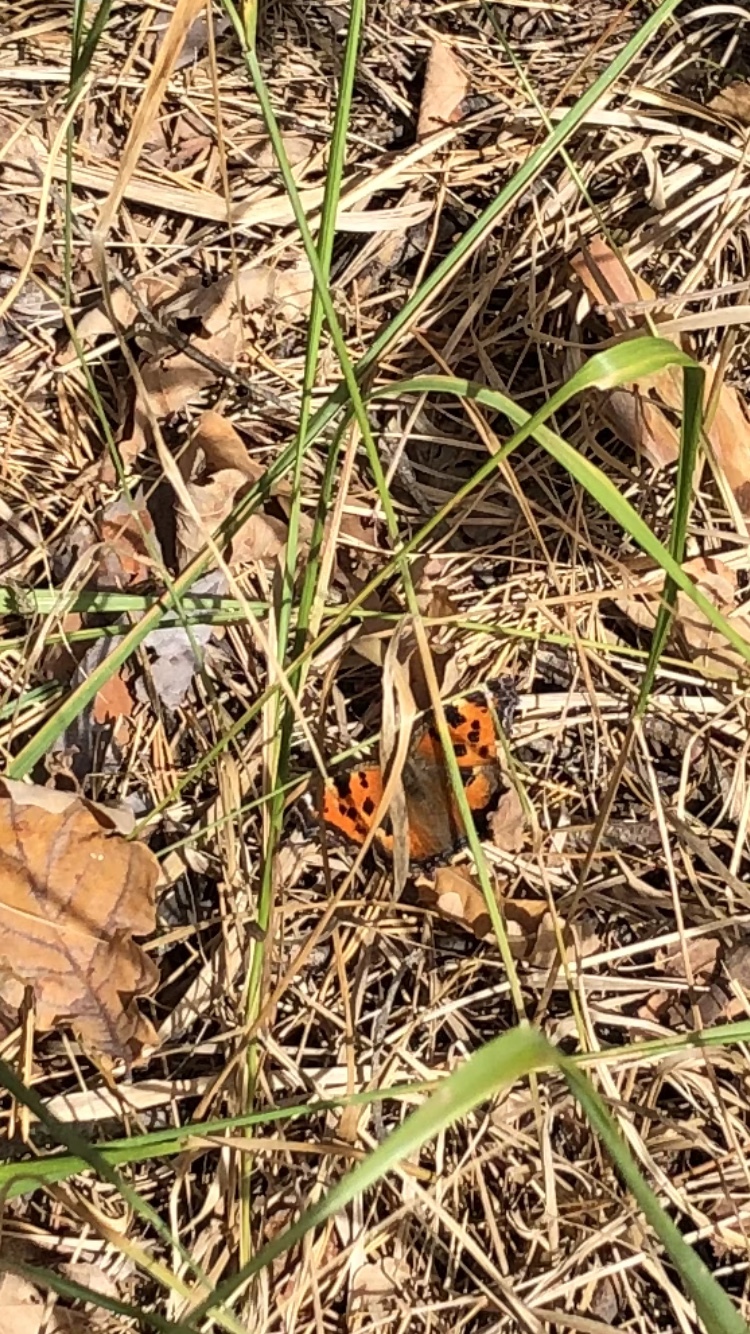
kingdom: Animalia
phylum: Arthropoda
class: Insecta
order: Lepidoptera
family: Nymphalidae
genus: Nymphalis
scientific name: Nymphalis xanthomelas
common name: Scarce tortoiseshell
